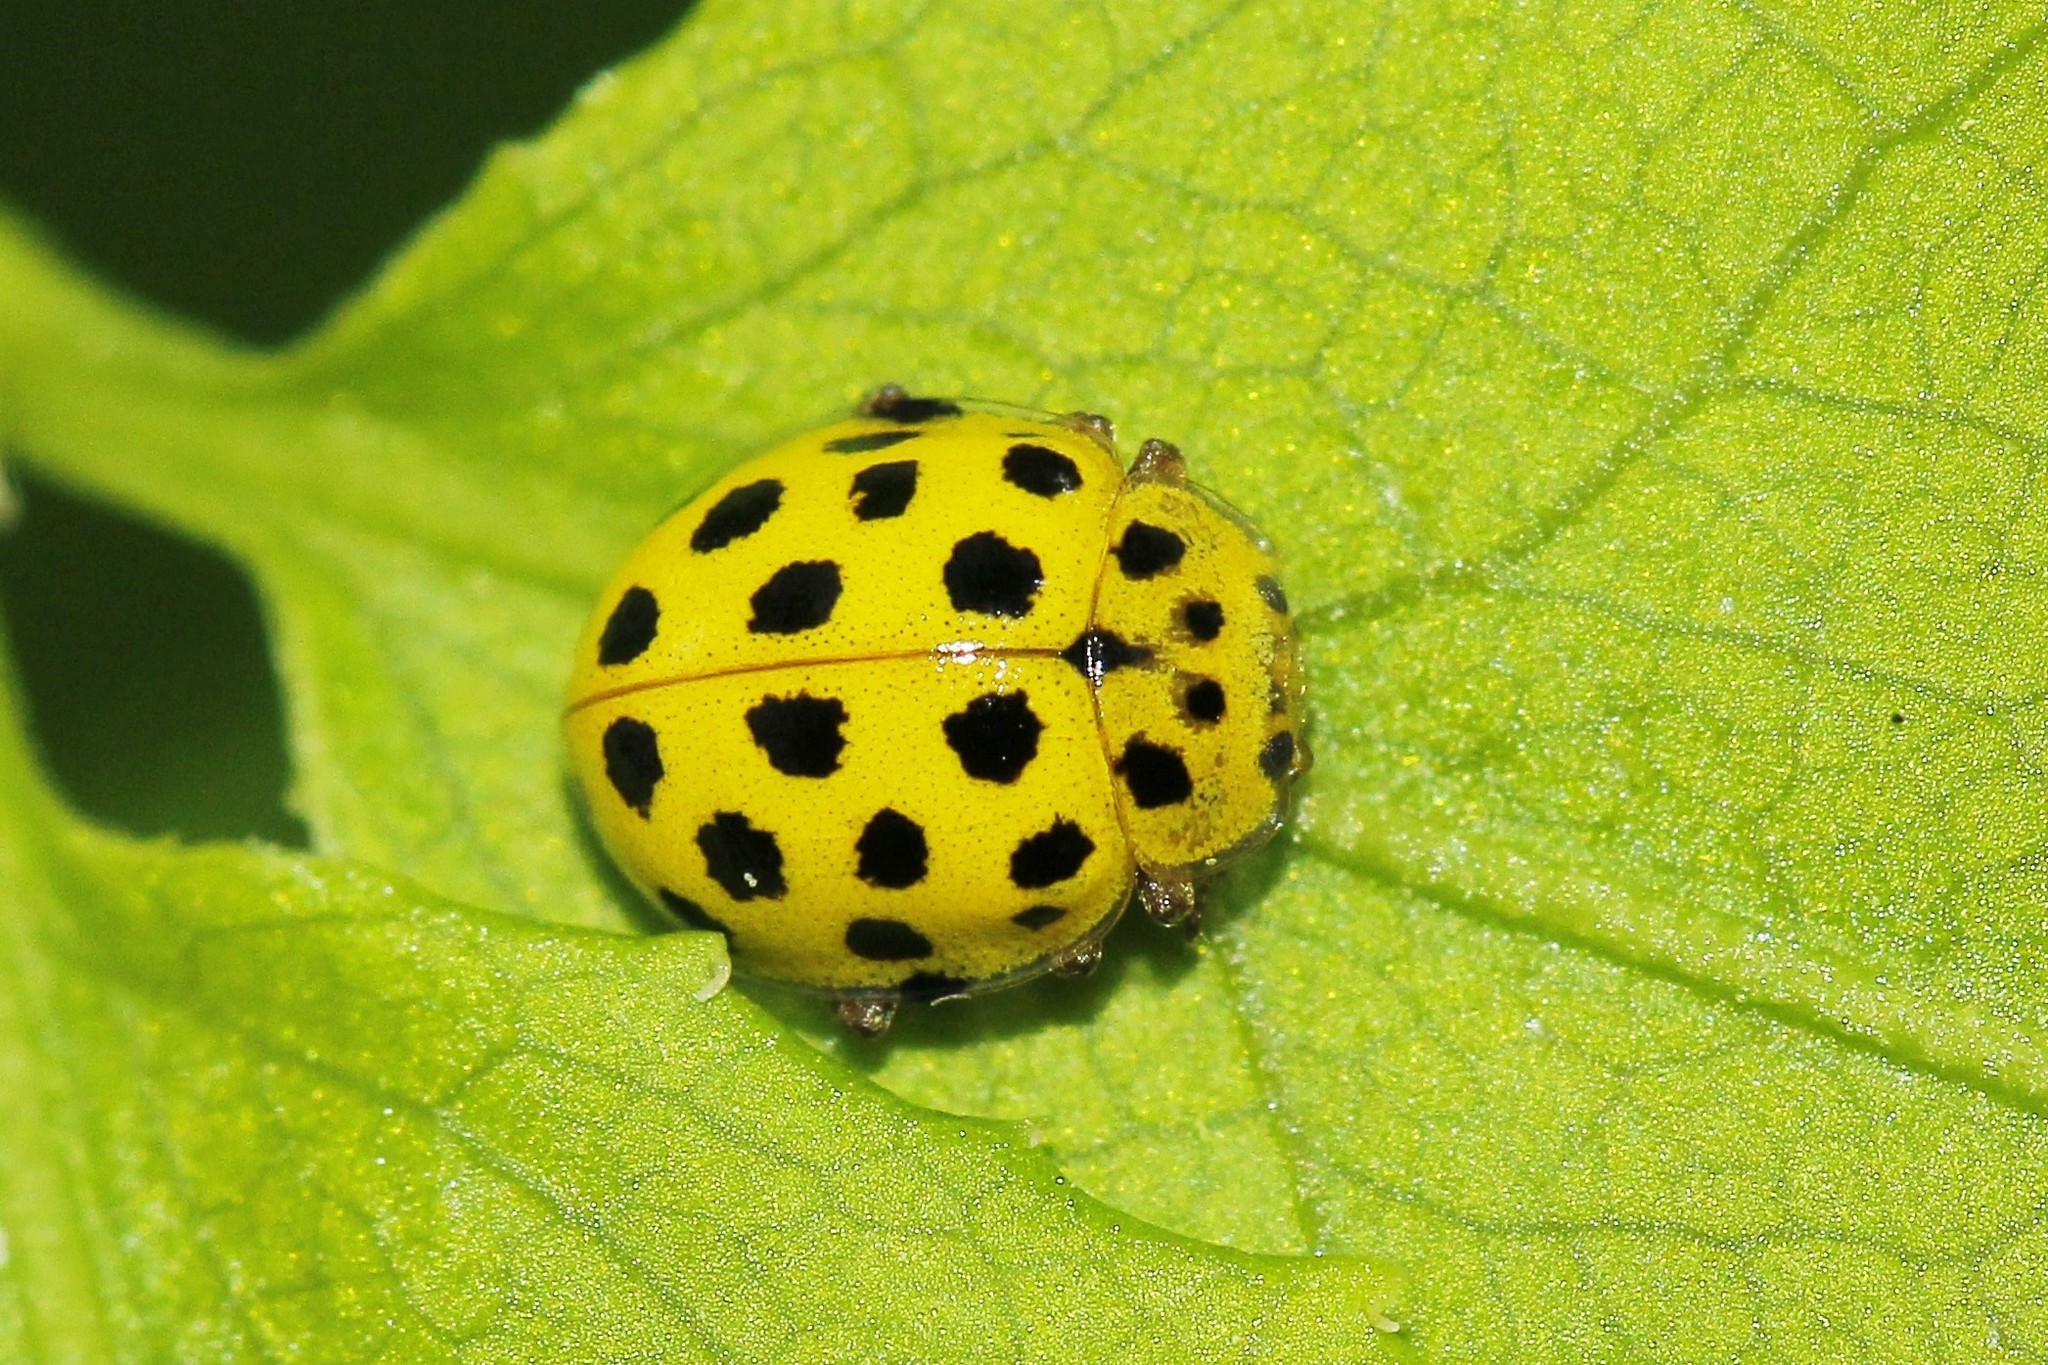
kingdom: Animalia
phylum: Arthropoda
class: Insecta
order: Coleoptera
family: Coccinellidae
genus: Psyllobora
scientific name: Psyllobora vigintiduopunctata
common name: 22-spot ladybird
